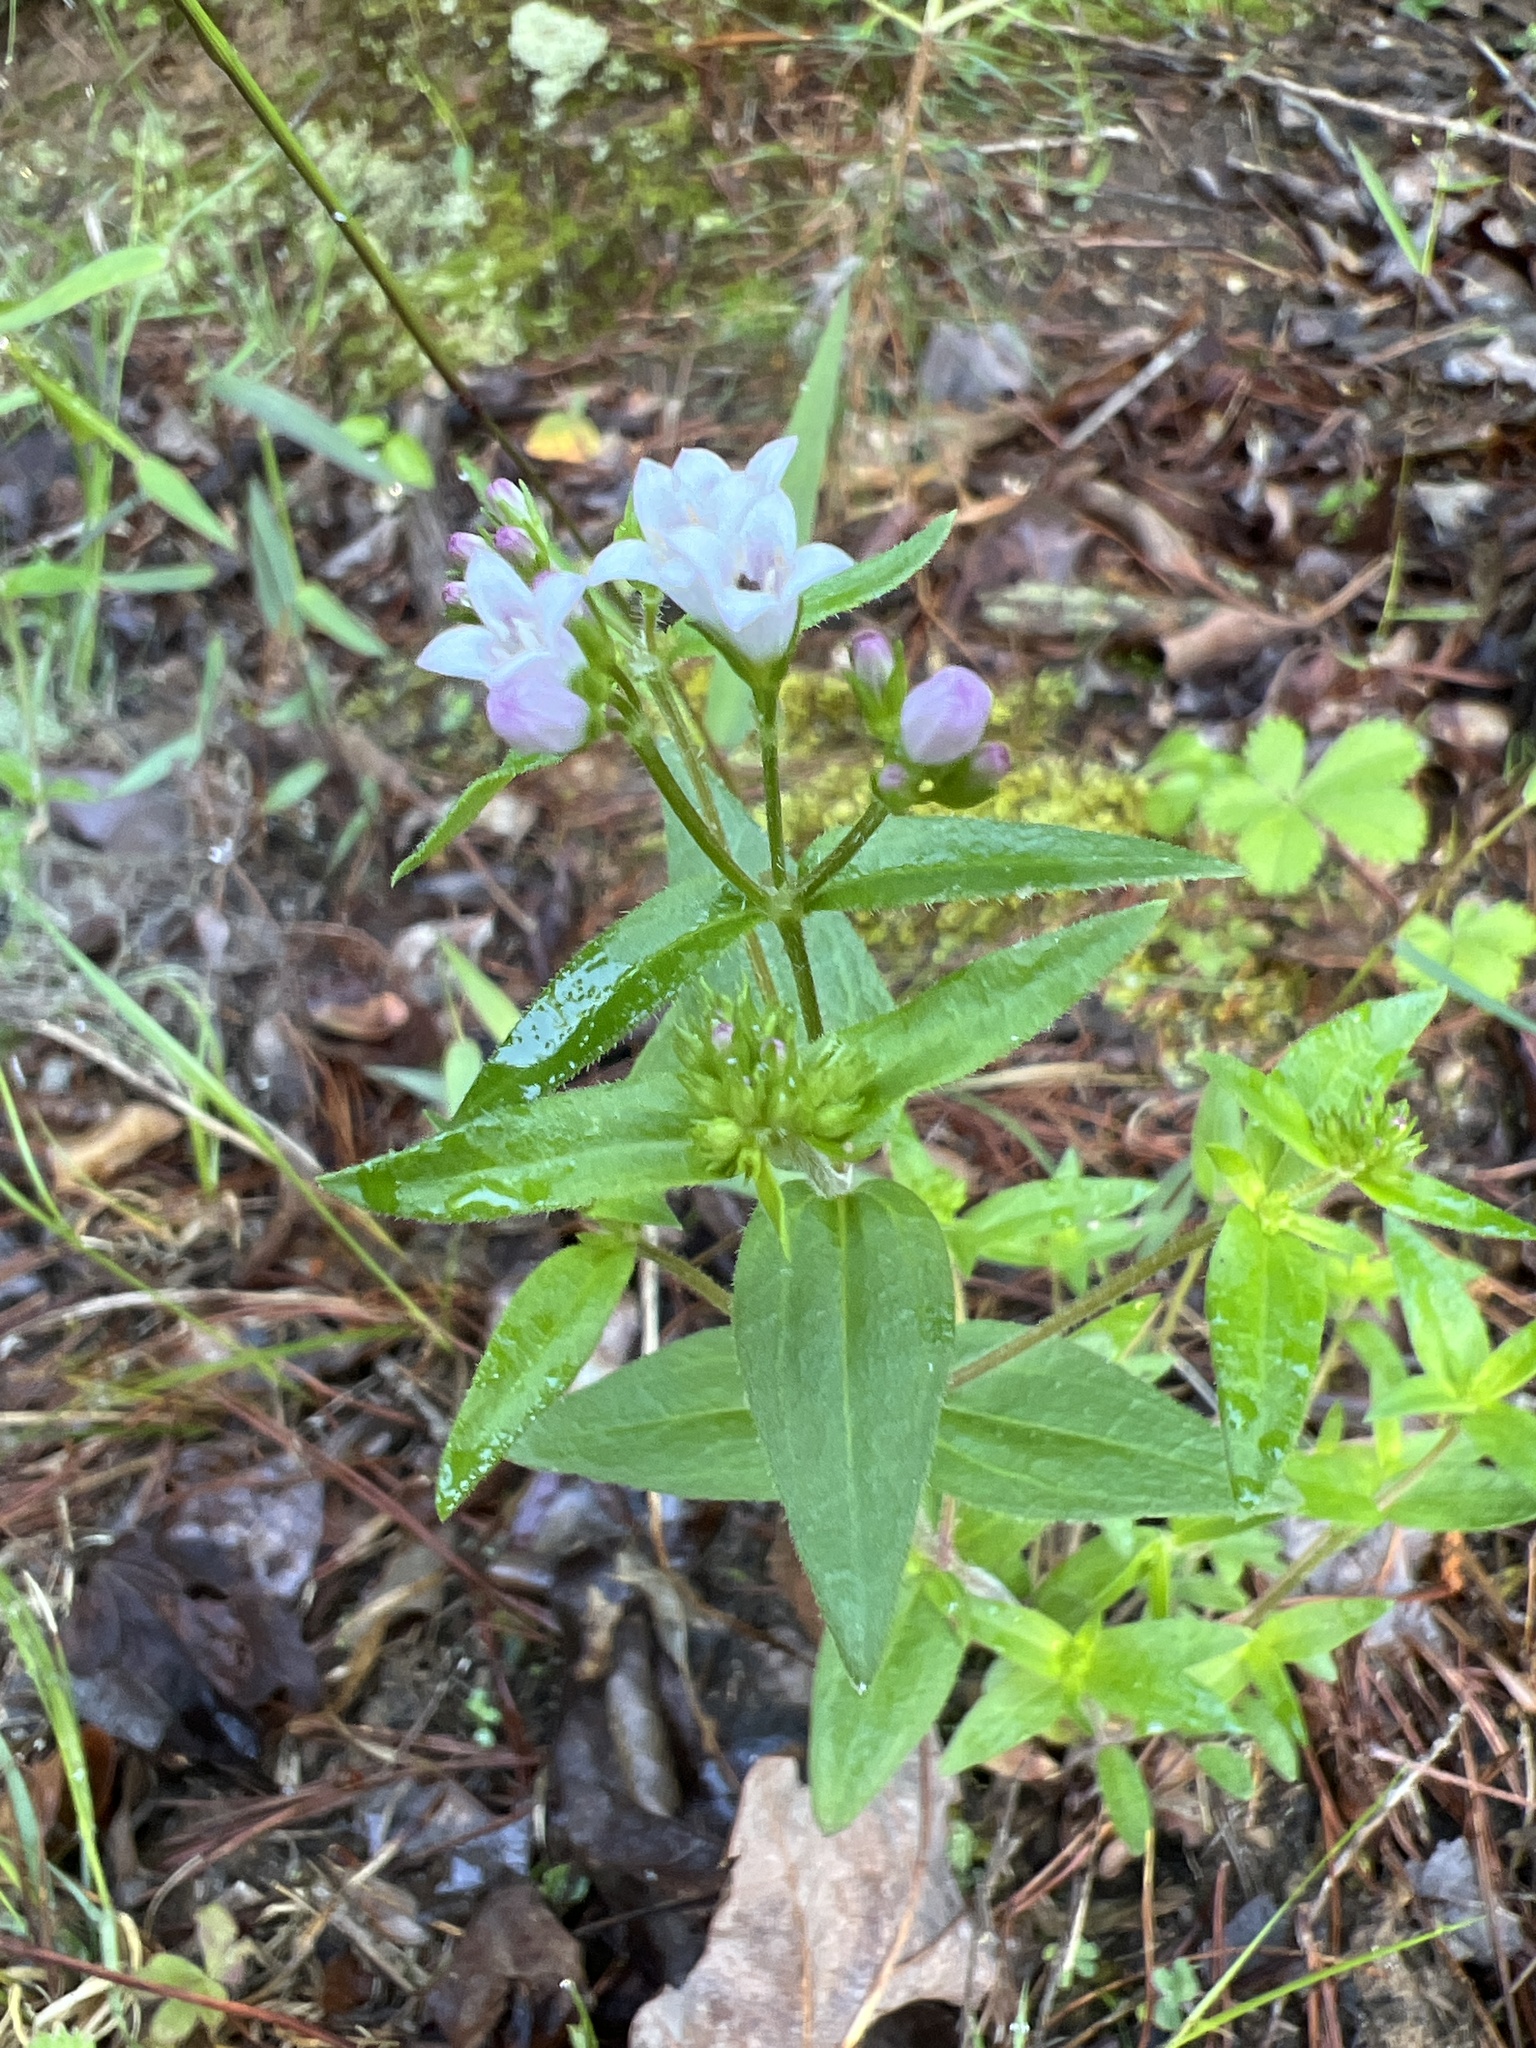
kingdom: Plantae
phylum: Tracheophyta
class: Magnoliopsida
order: Gentianales
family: Rubiaceae
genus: Houstonia
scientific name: Houstonia purpurea
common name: Summer bluet
